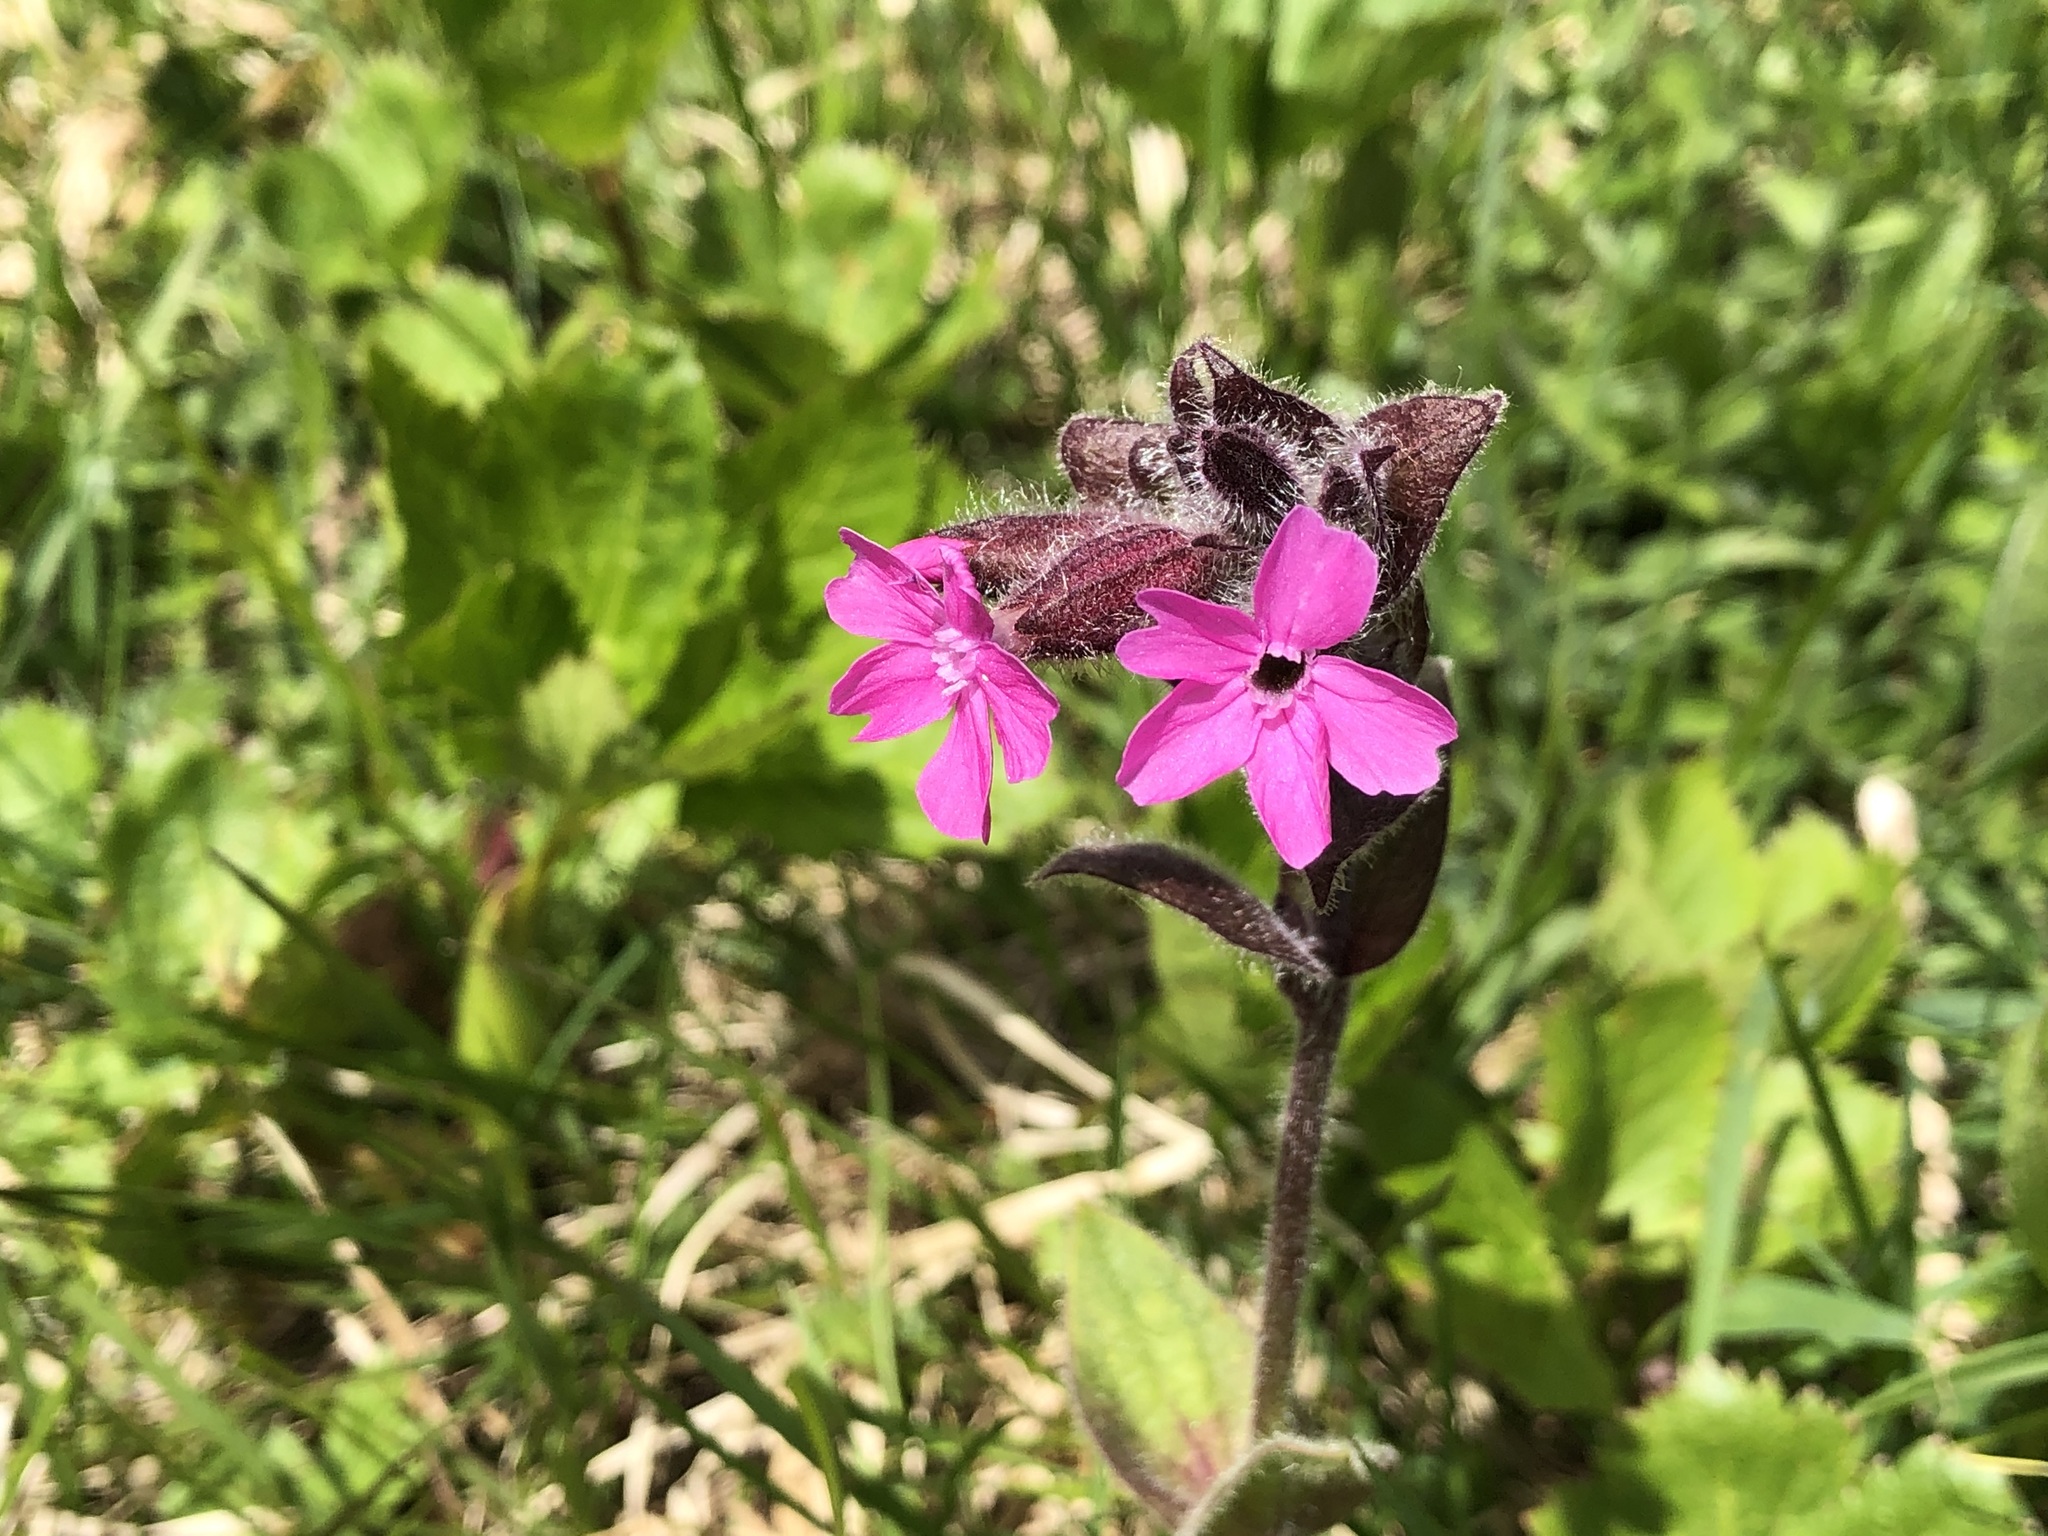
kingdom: Plantae
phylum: Tracheophyta
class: Magnoliopsida
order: Caryophyllales
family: Caryophyllaceae
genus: Silene
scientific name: Silene dioica
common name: Red campion
